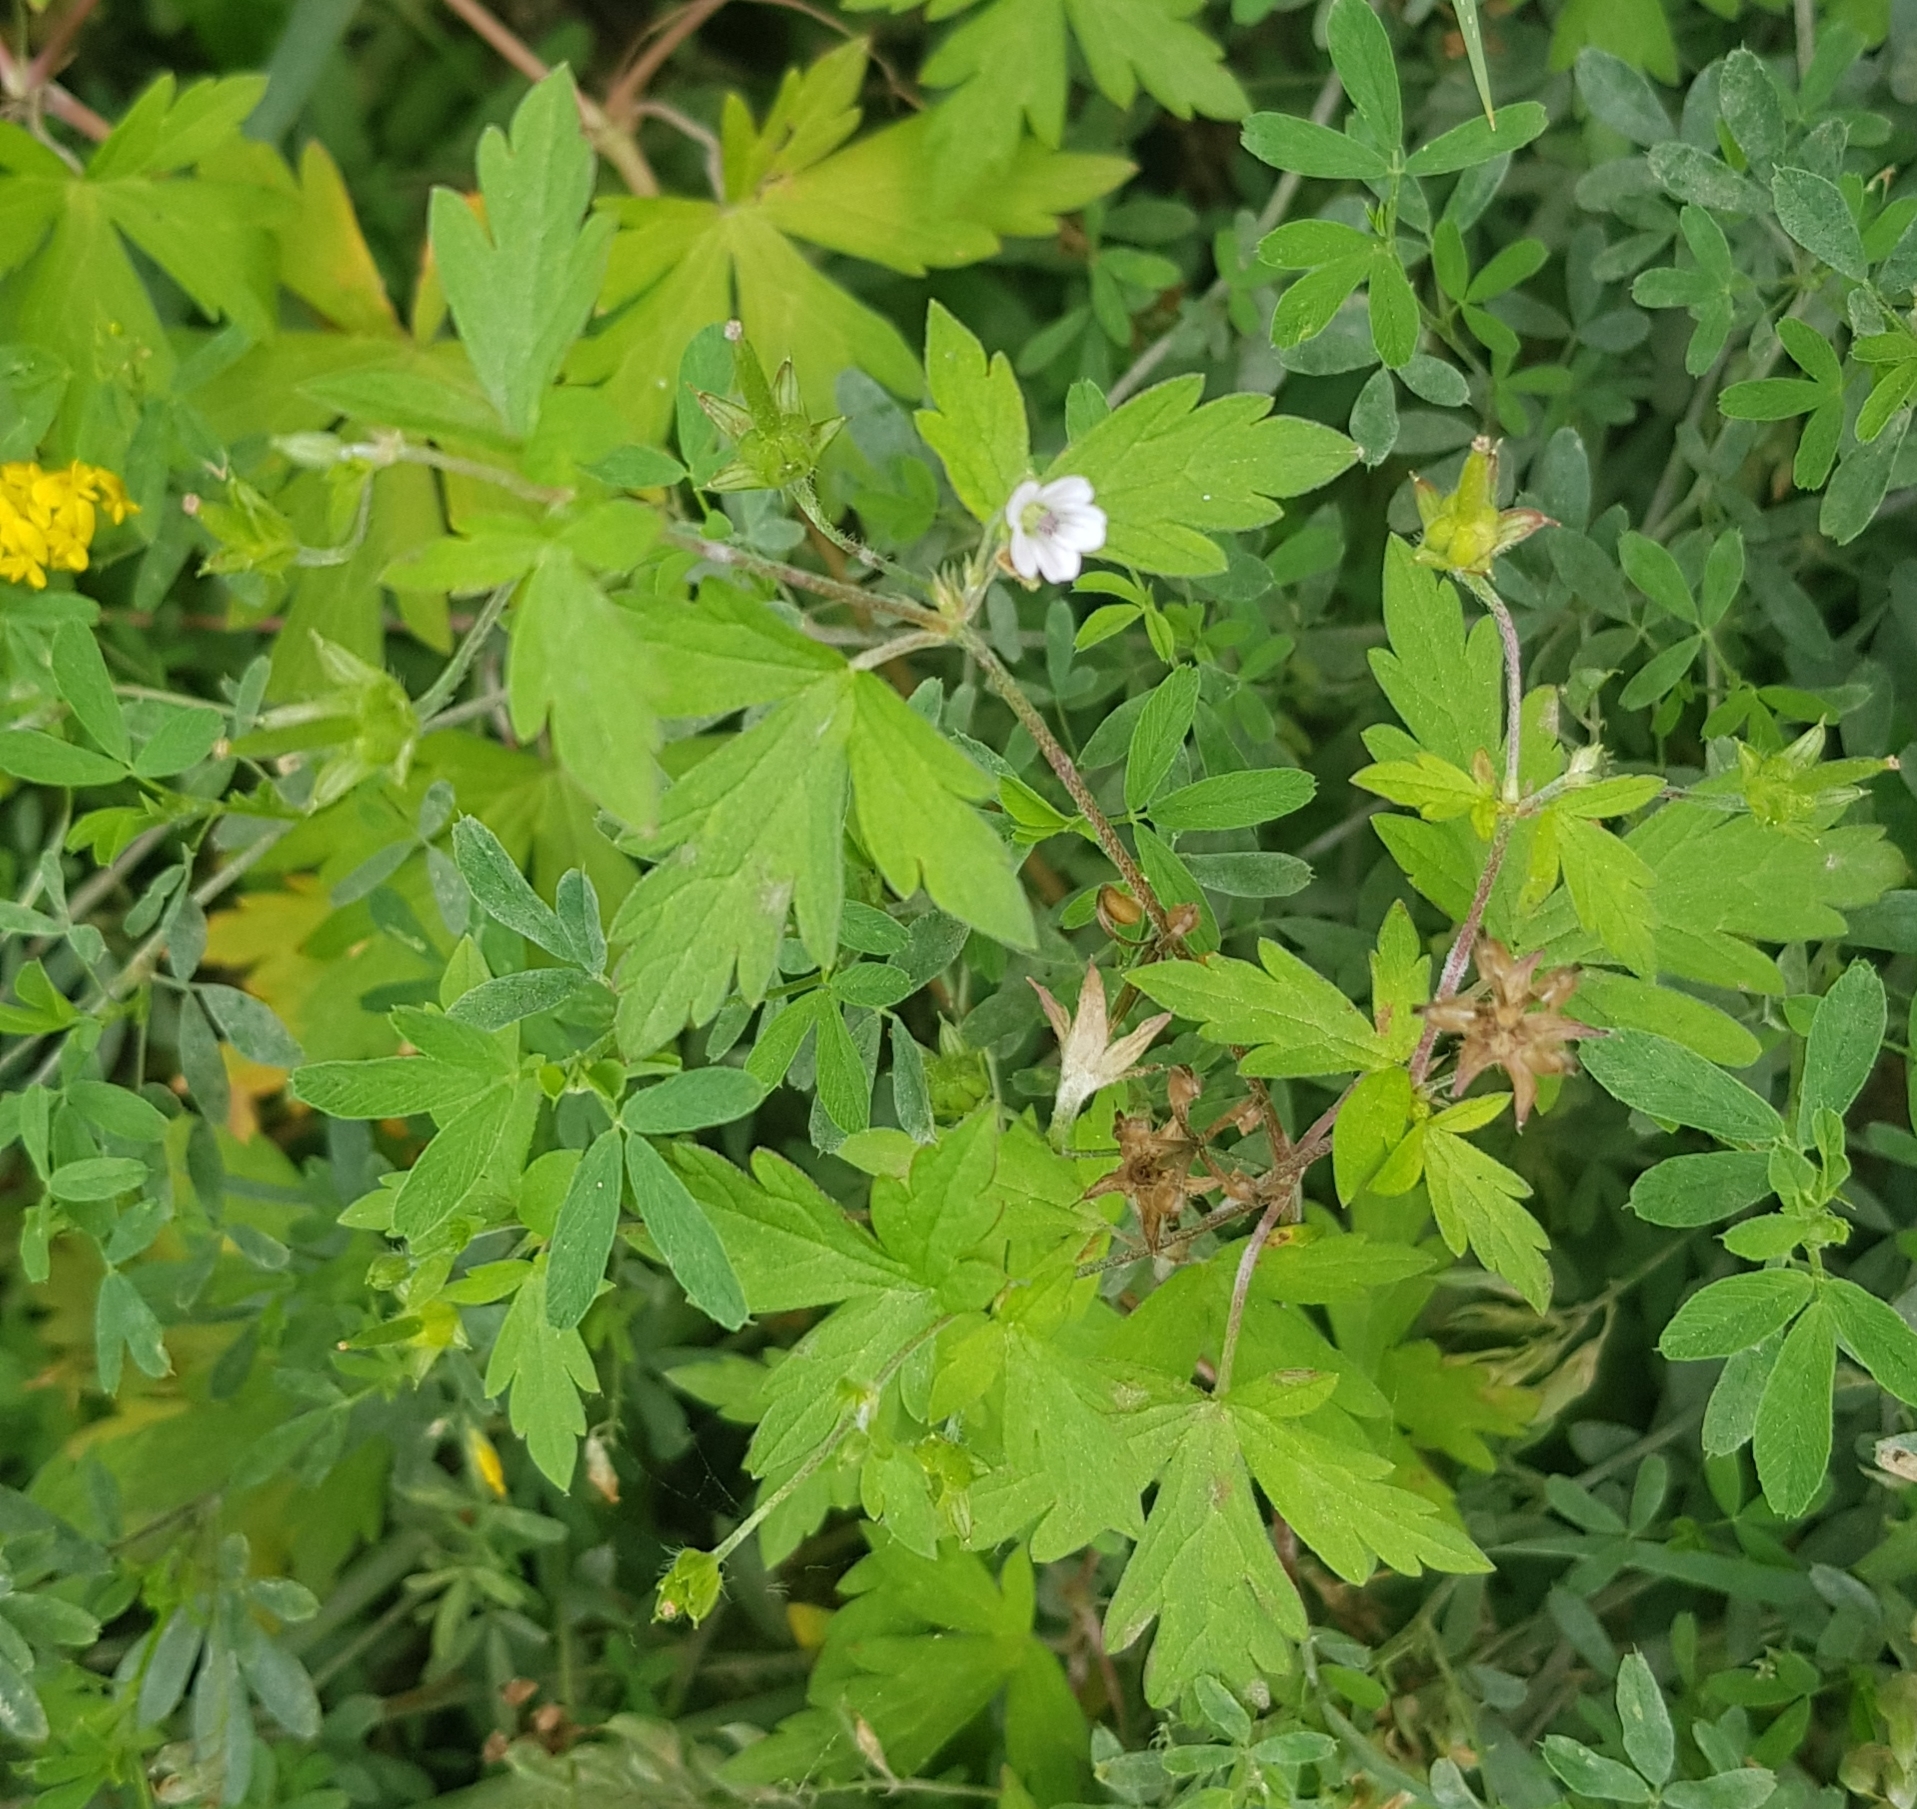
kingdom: Plantae
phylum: Tracheophyta
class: Magnoliopsida
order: Geraniales
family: Geraniaceae
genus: Geranium
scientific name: Geranium sibiricum
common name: Siberian crane's-bill
